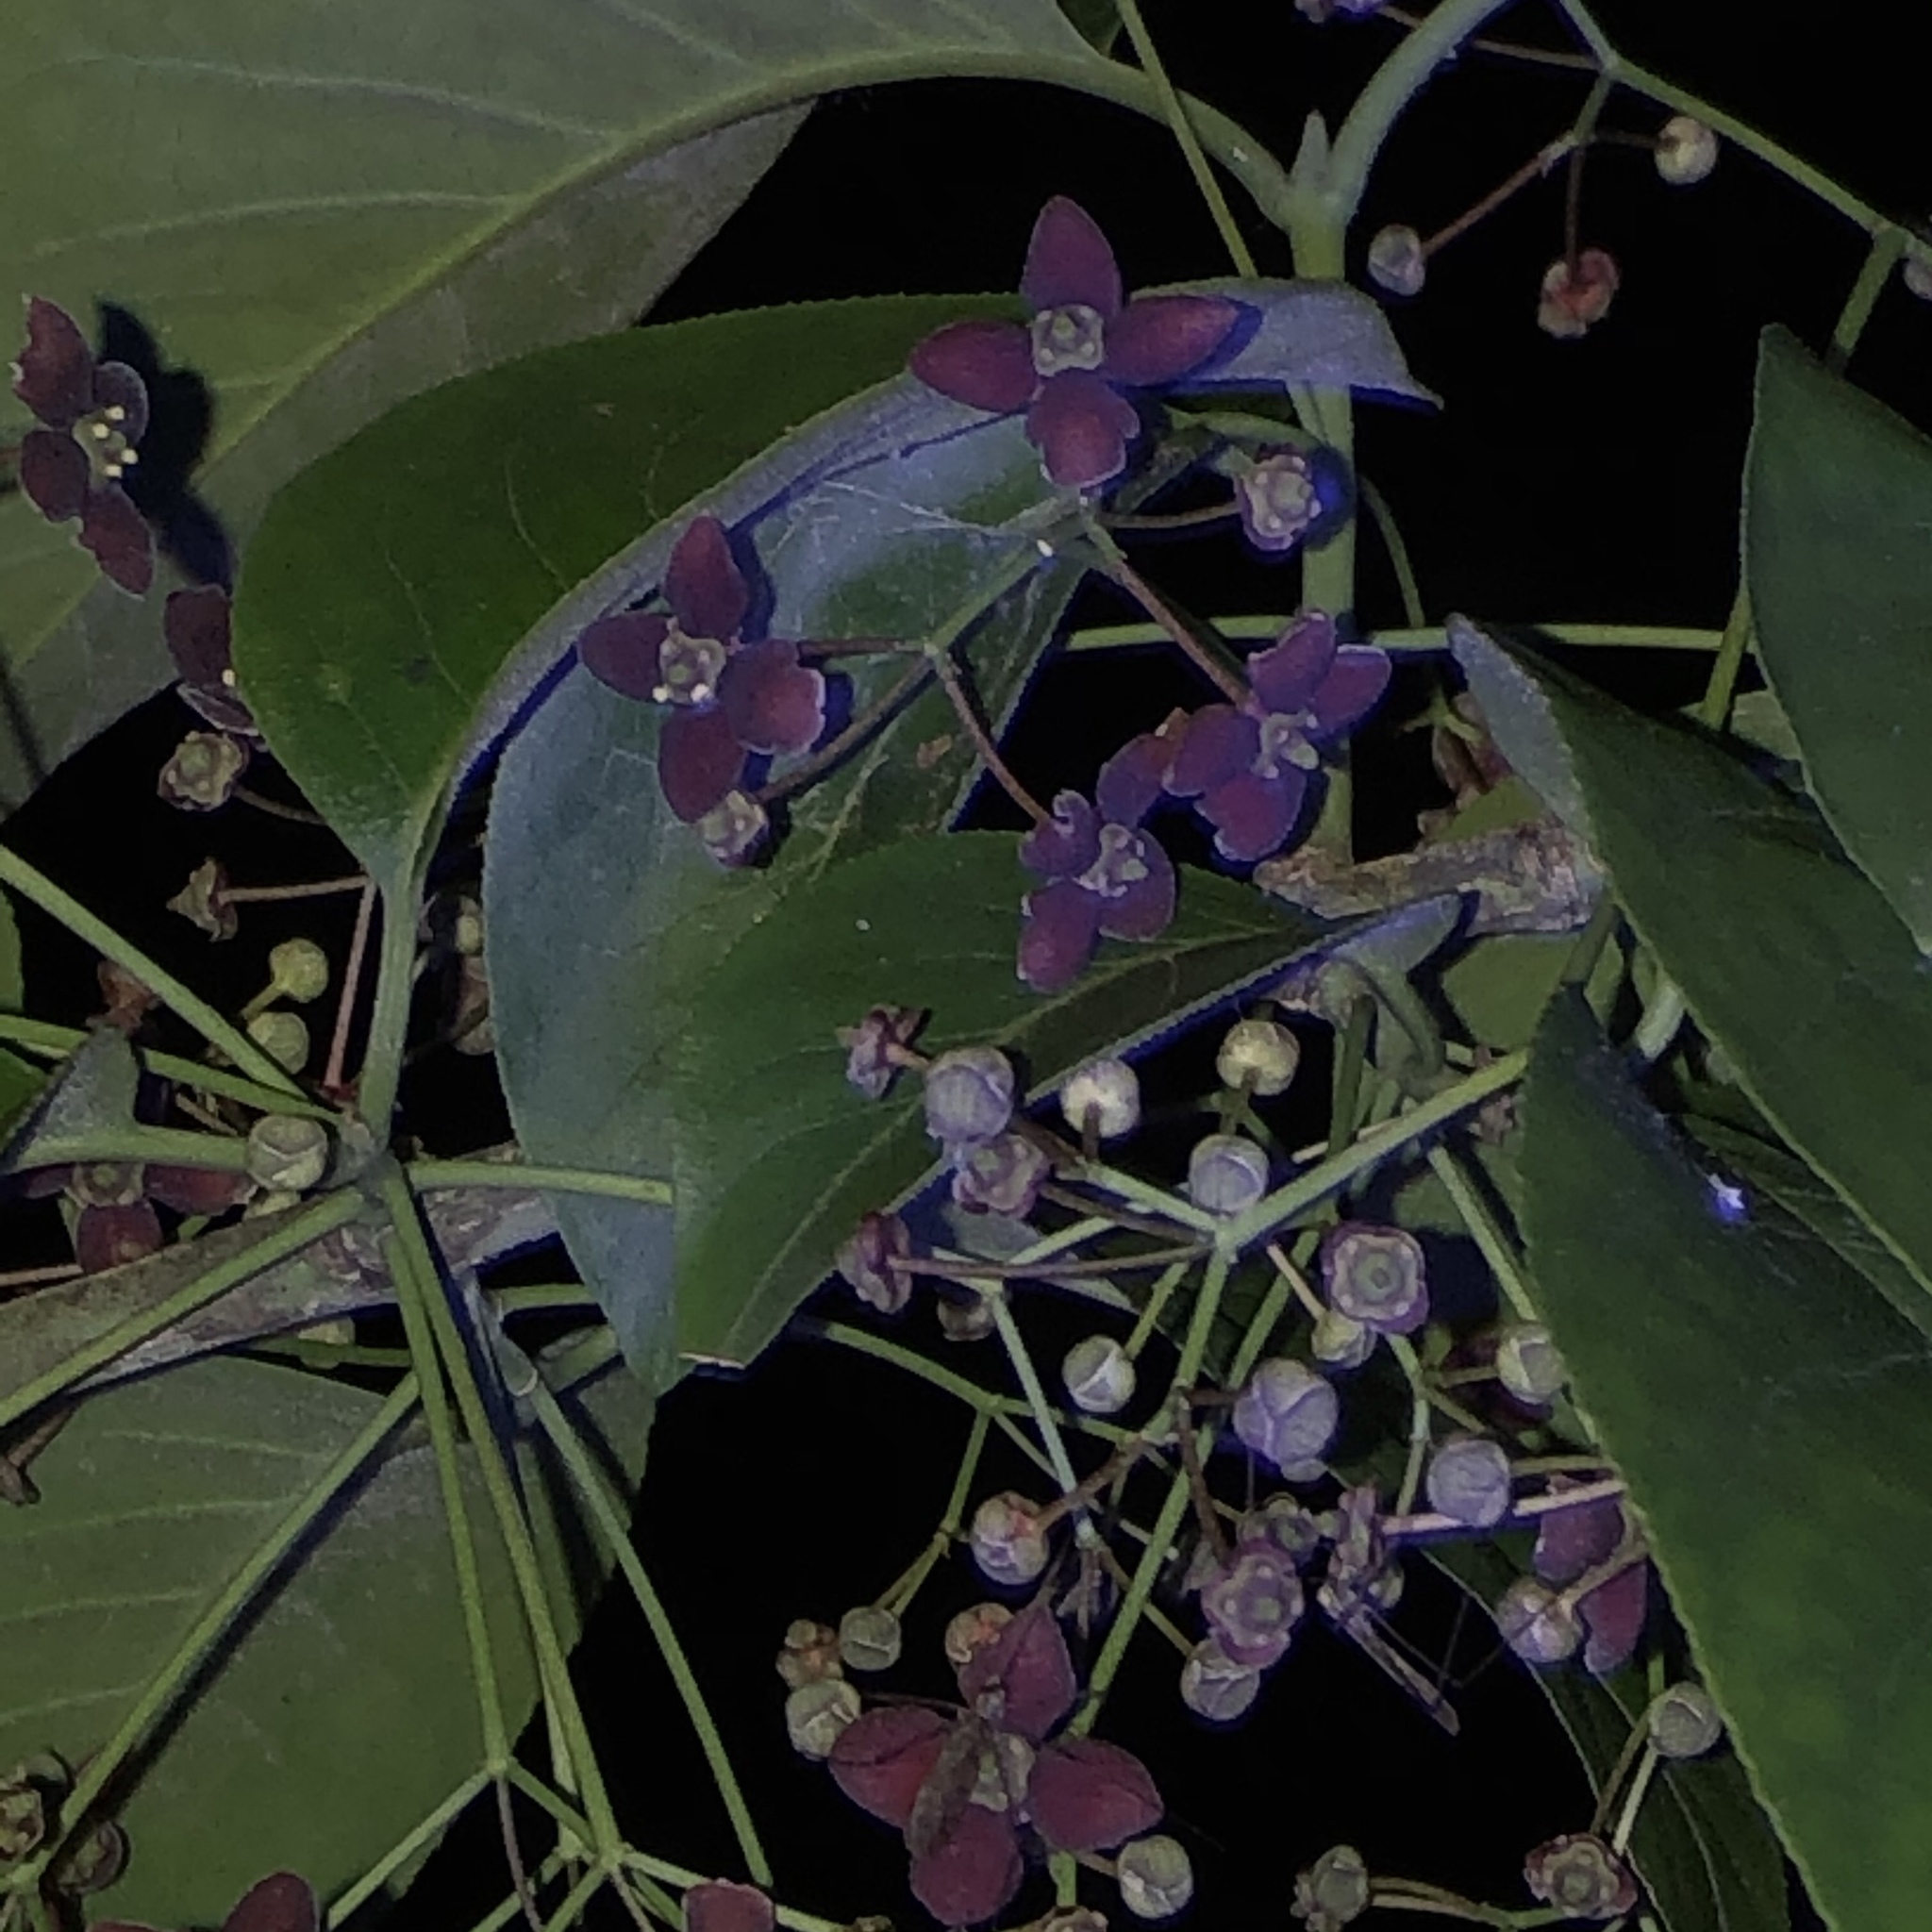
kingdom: Plantae
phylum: Tracheophyta
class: Magnoliopsida
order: Celastrales
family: Celastraceae
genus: Euonymus
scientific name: Euonymus atropurpureus
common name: Eastern wahoo
